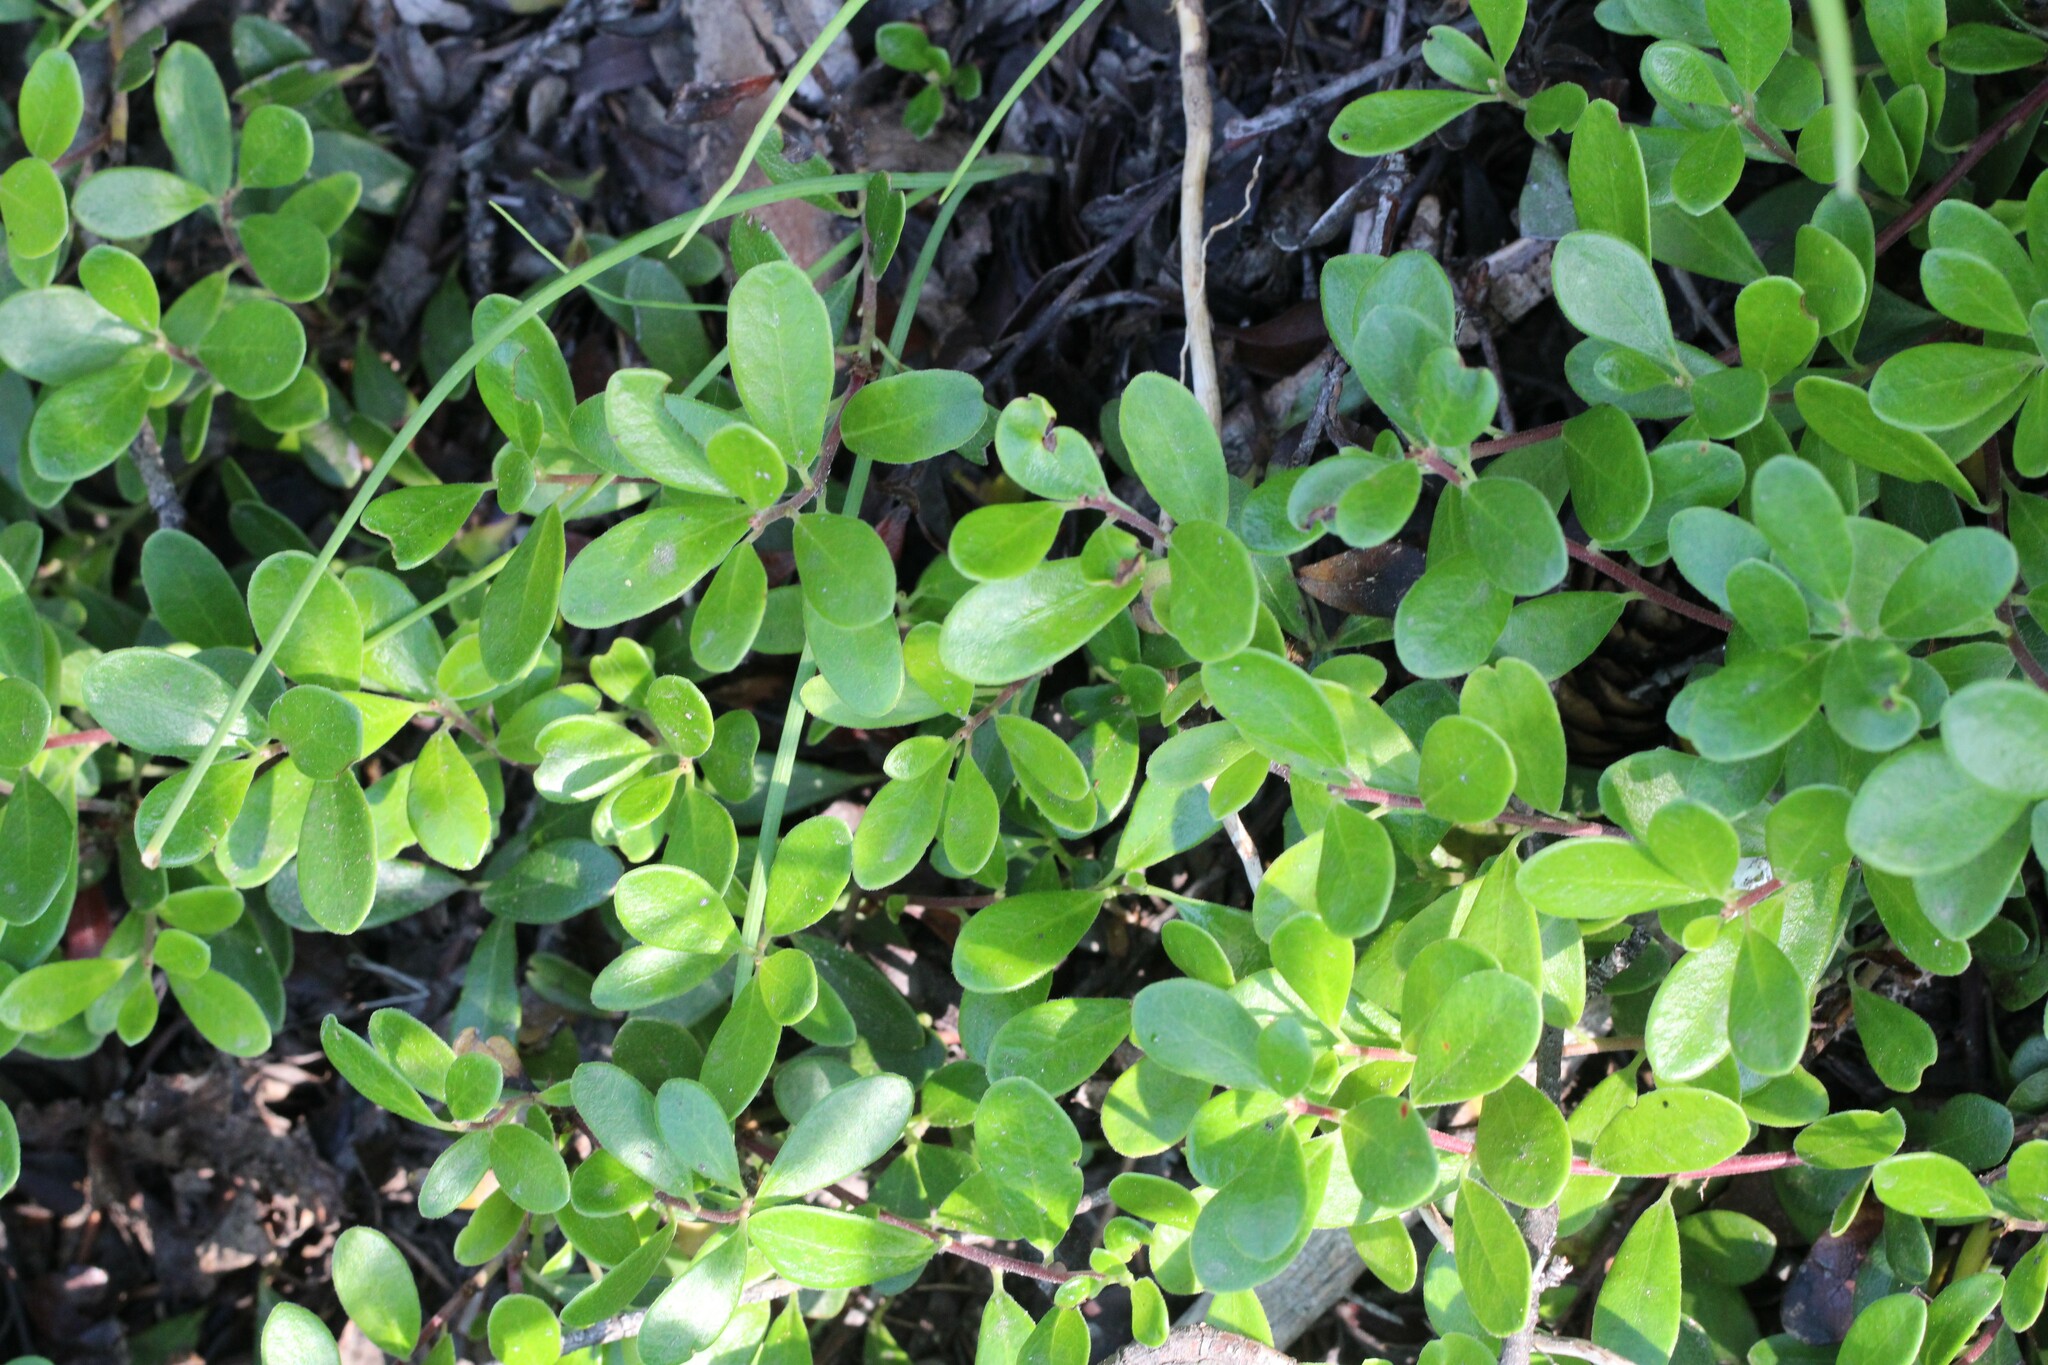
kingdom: Plantae
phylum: Tracheophyta
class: Magnoliopsida
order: Ericales
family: Ericaceae
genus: Arctostaphylos
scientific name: Arctostaphylos uva-ursi
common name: Bearberry
